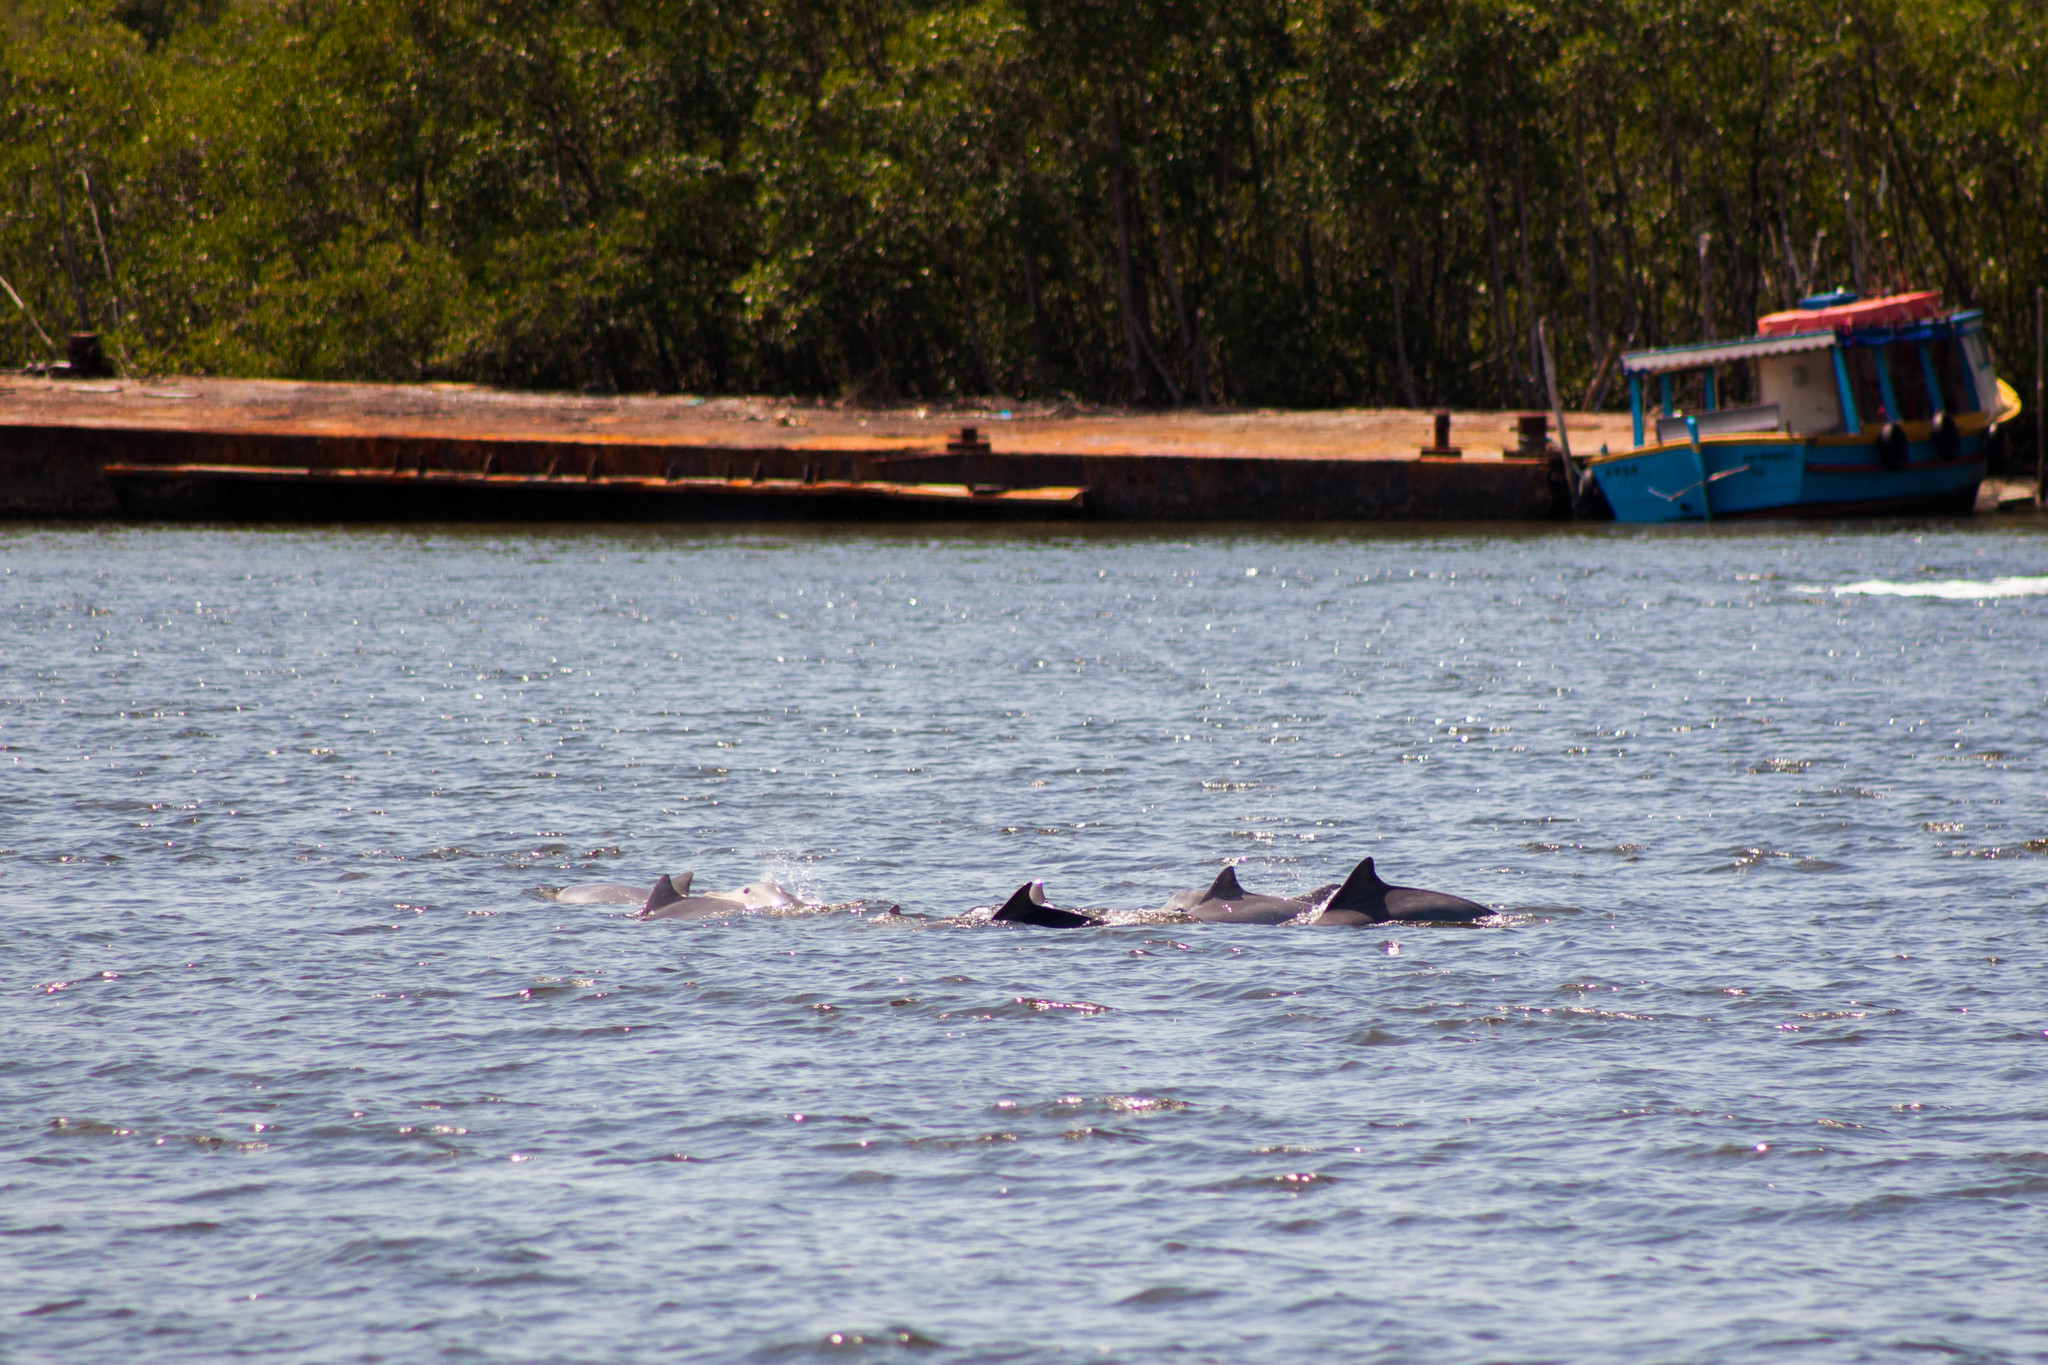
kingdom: Animalia
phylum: Chordata
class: Mammalia
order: Cetacea
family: Delphinidae
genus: Sotalia
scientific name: Sotalia guianensis
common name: Guiana dolphin
